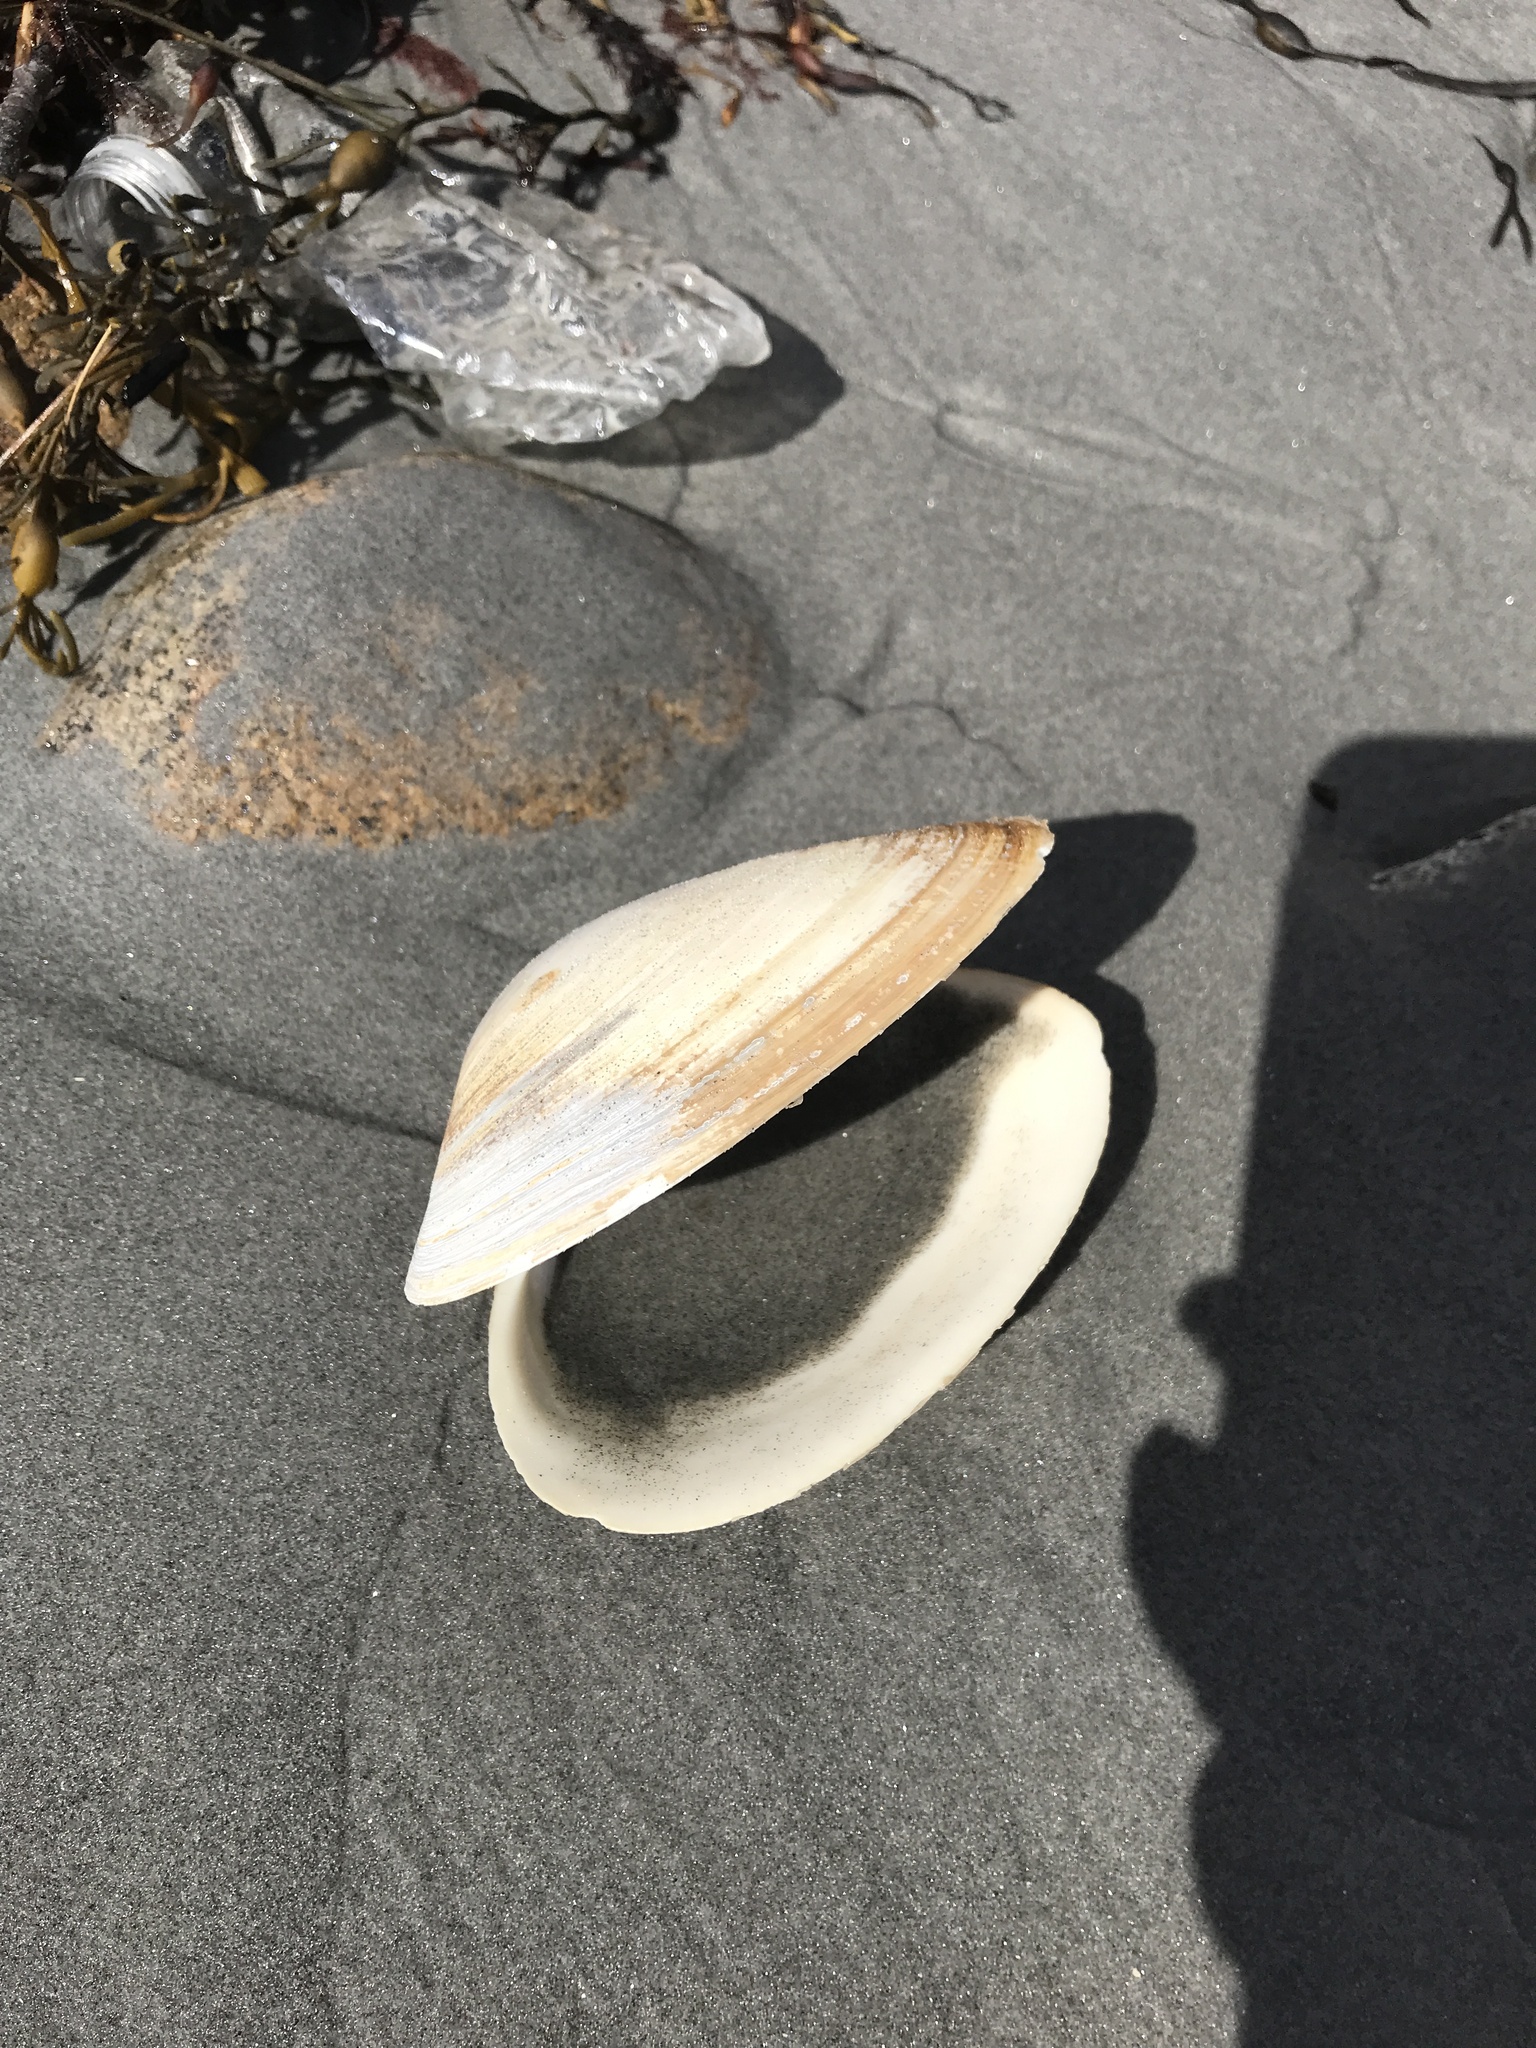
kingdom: Animalia
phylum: Mollusca
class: Bivalvia
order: Venerida
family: Mactridae
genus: Spisula
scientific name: Spisula solidissima
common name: Atlantic surf clam
